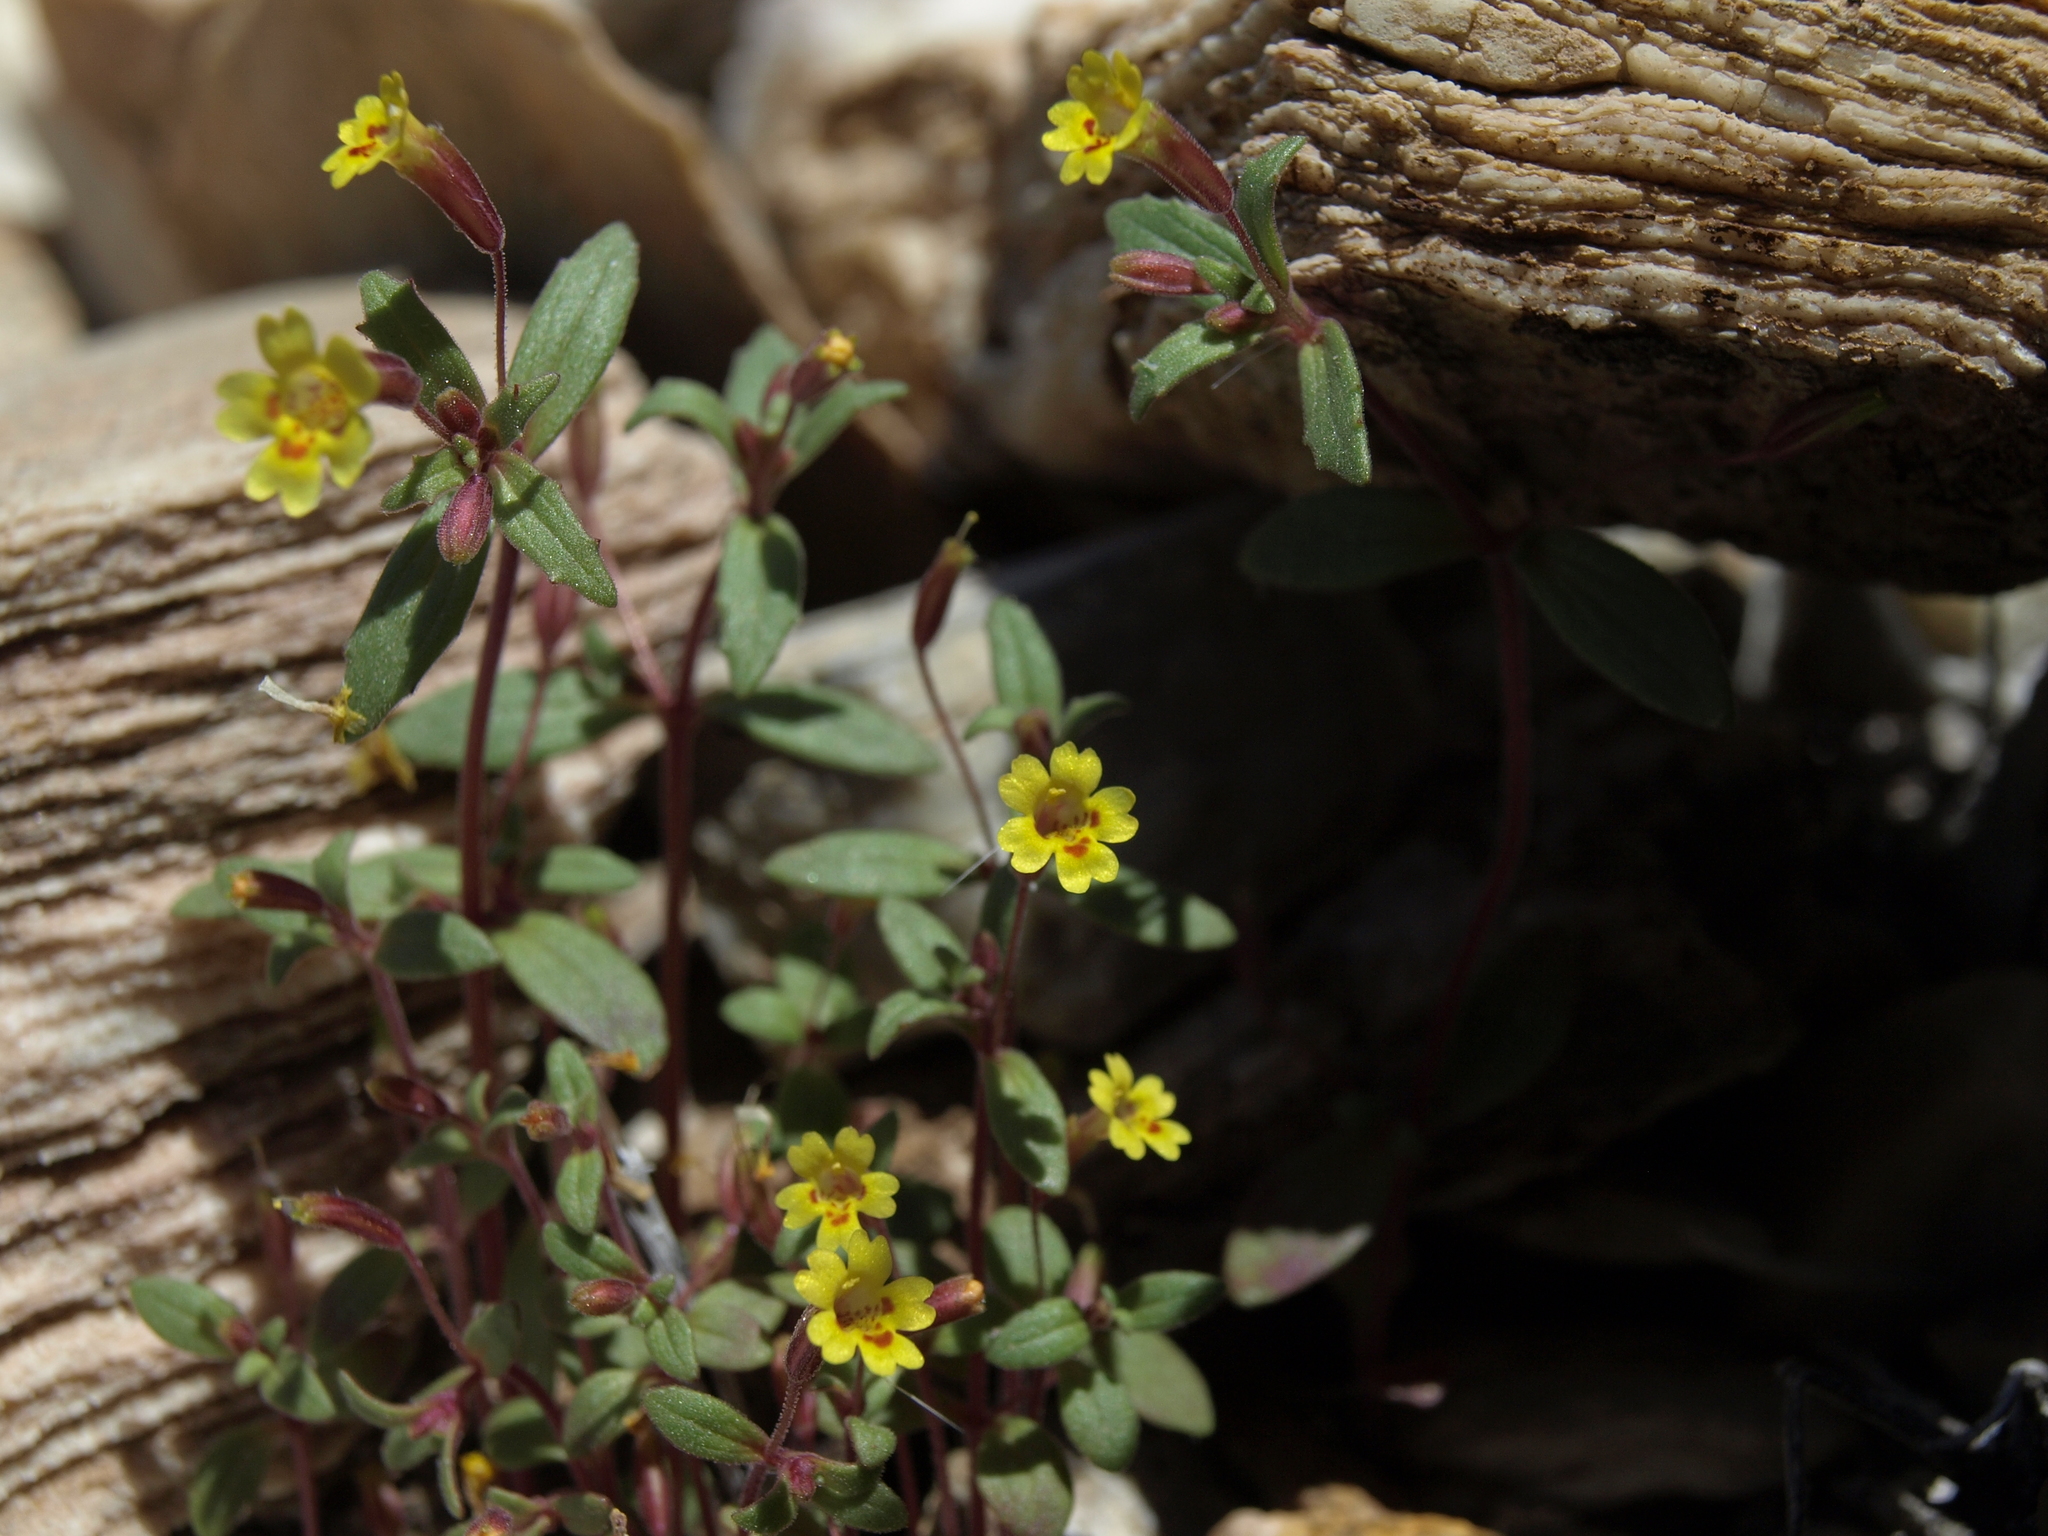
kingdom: Plantae
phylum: Tracheophyta
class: Magnoliopsida
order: Lamiales
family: Phrymaceae
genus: Erythranthe
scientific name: Erythranthe rubella
